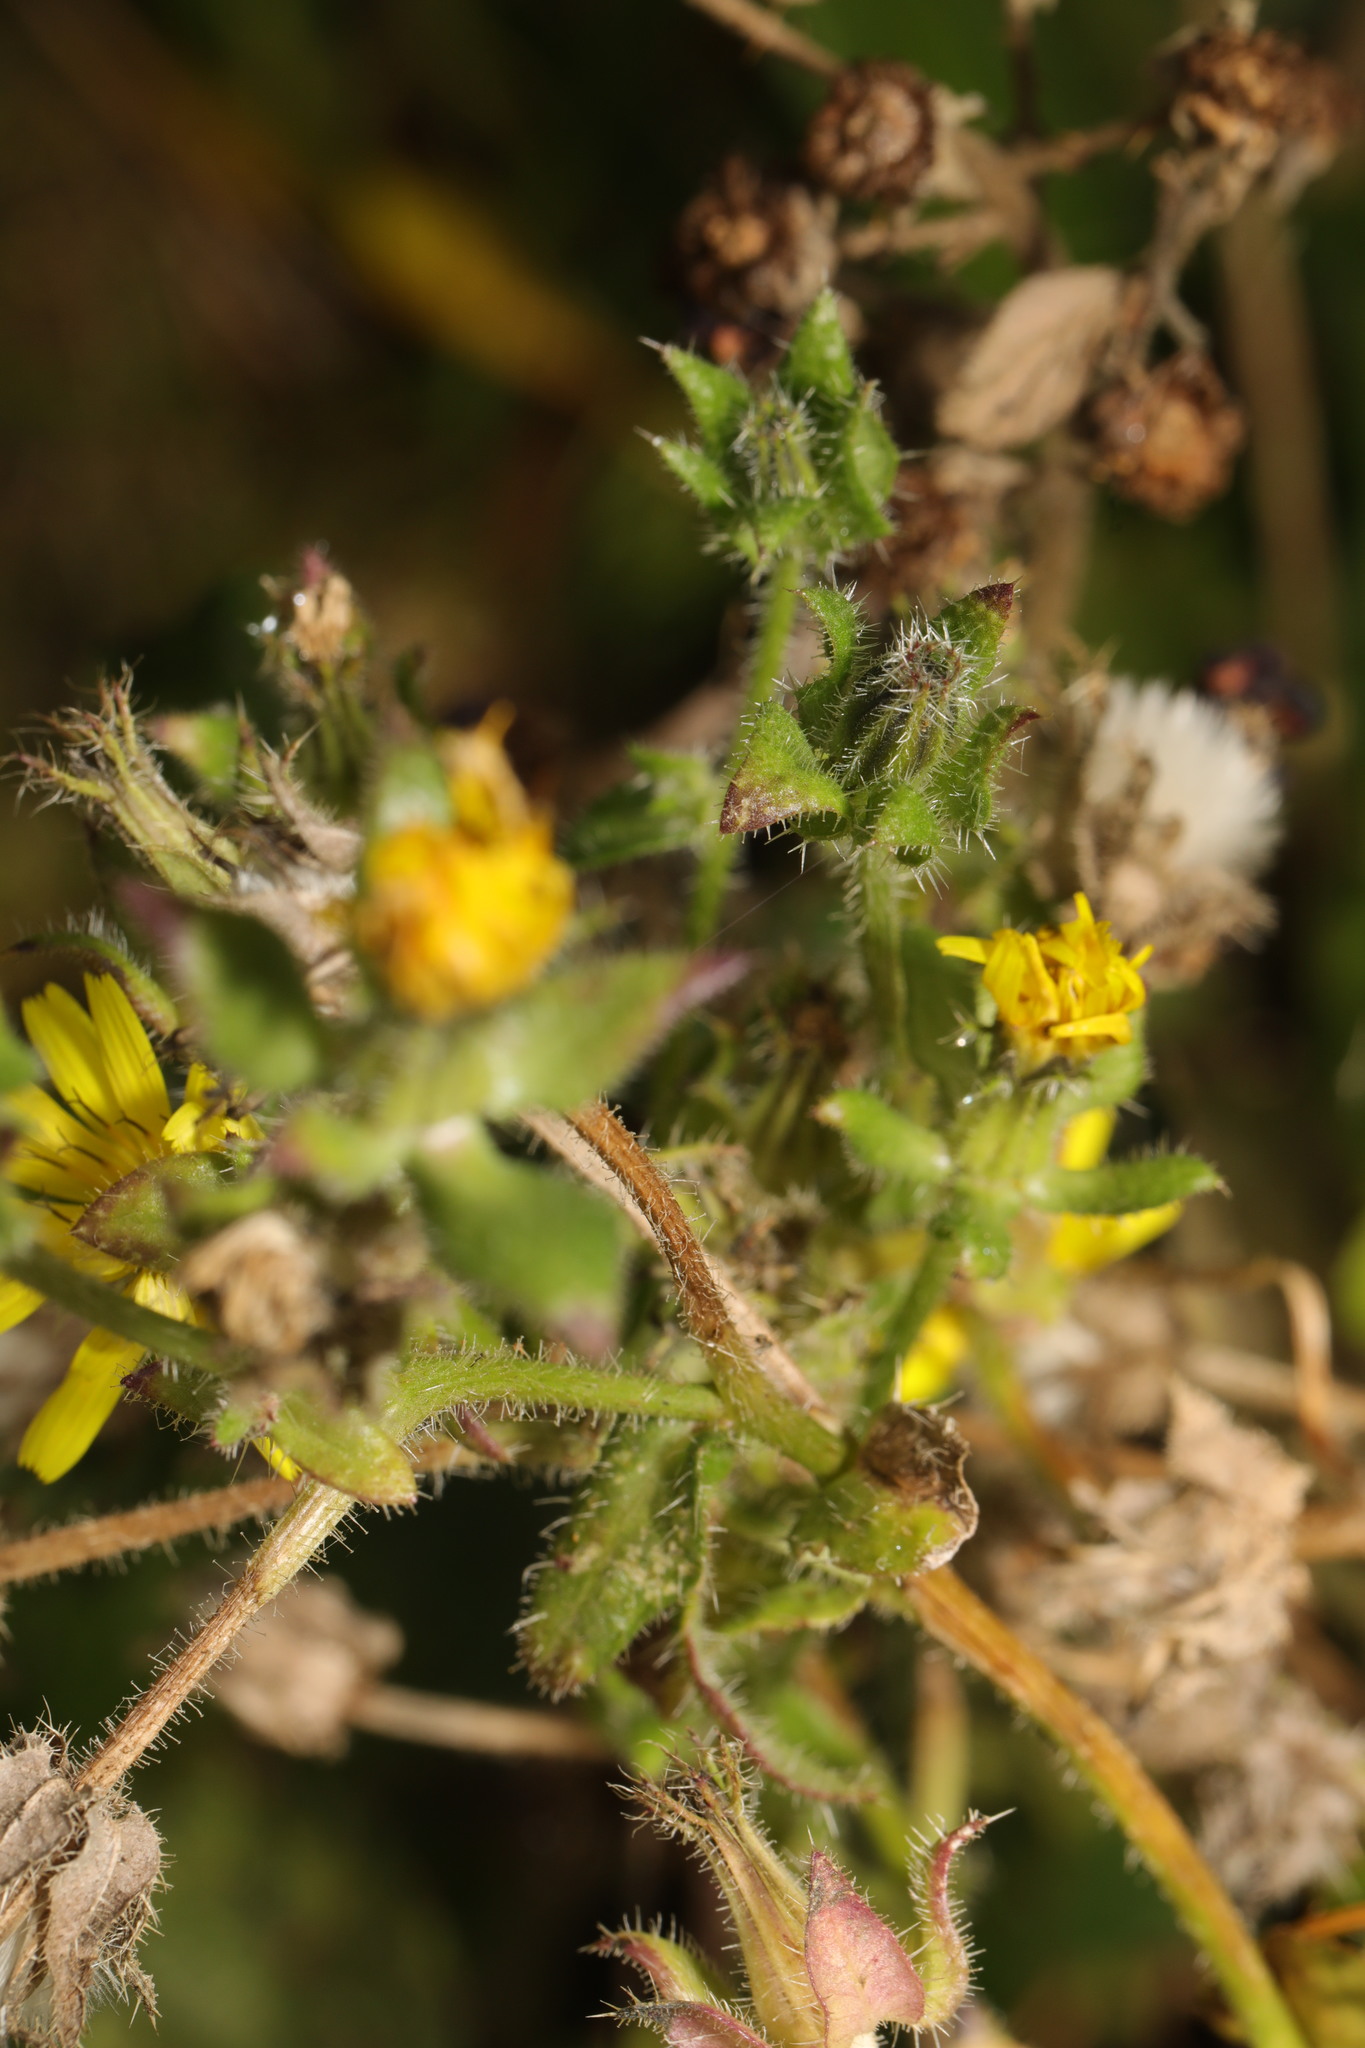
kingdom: Plantae
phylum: Tracheophyta
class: Magnoliopsida
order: Asterales
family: Asteraceae
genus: Helminthotheca
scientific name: Helminthotheca echioides
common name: Ox-tongue
